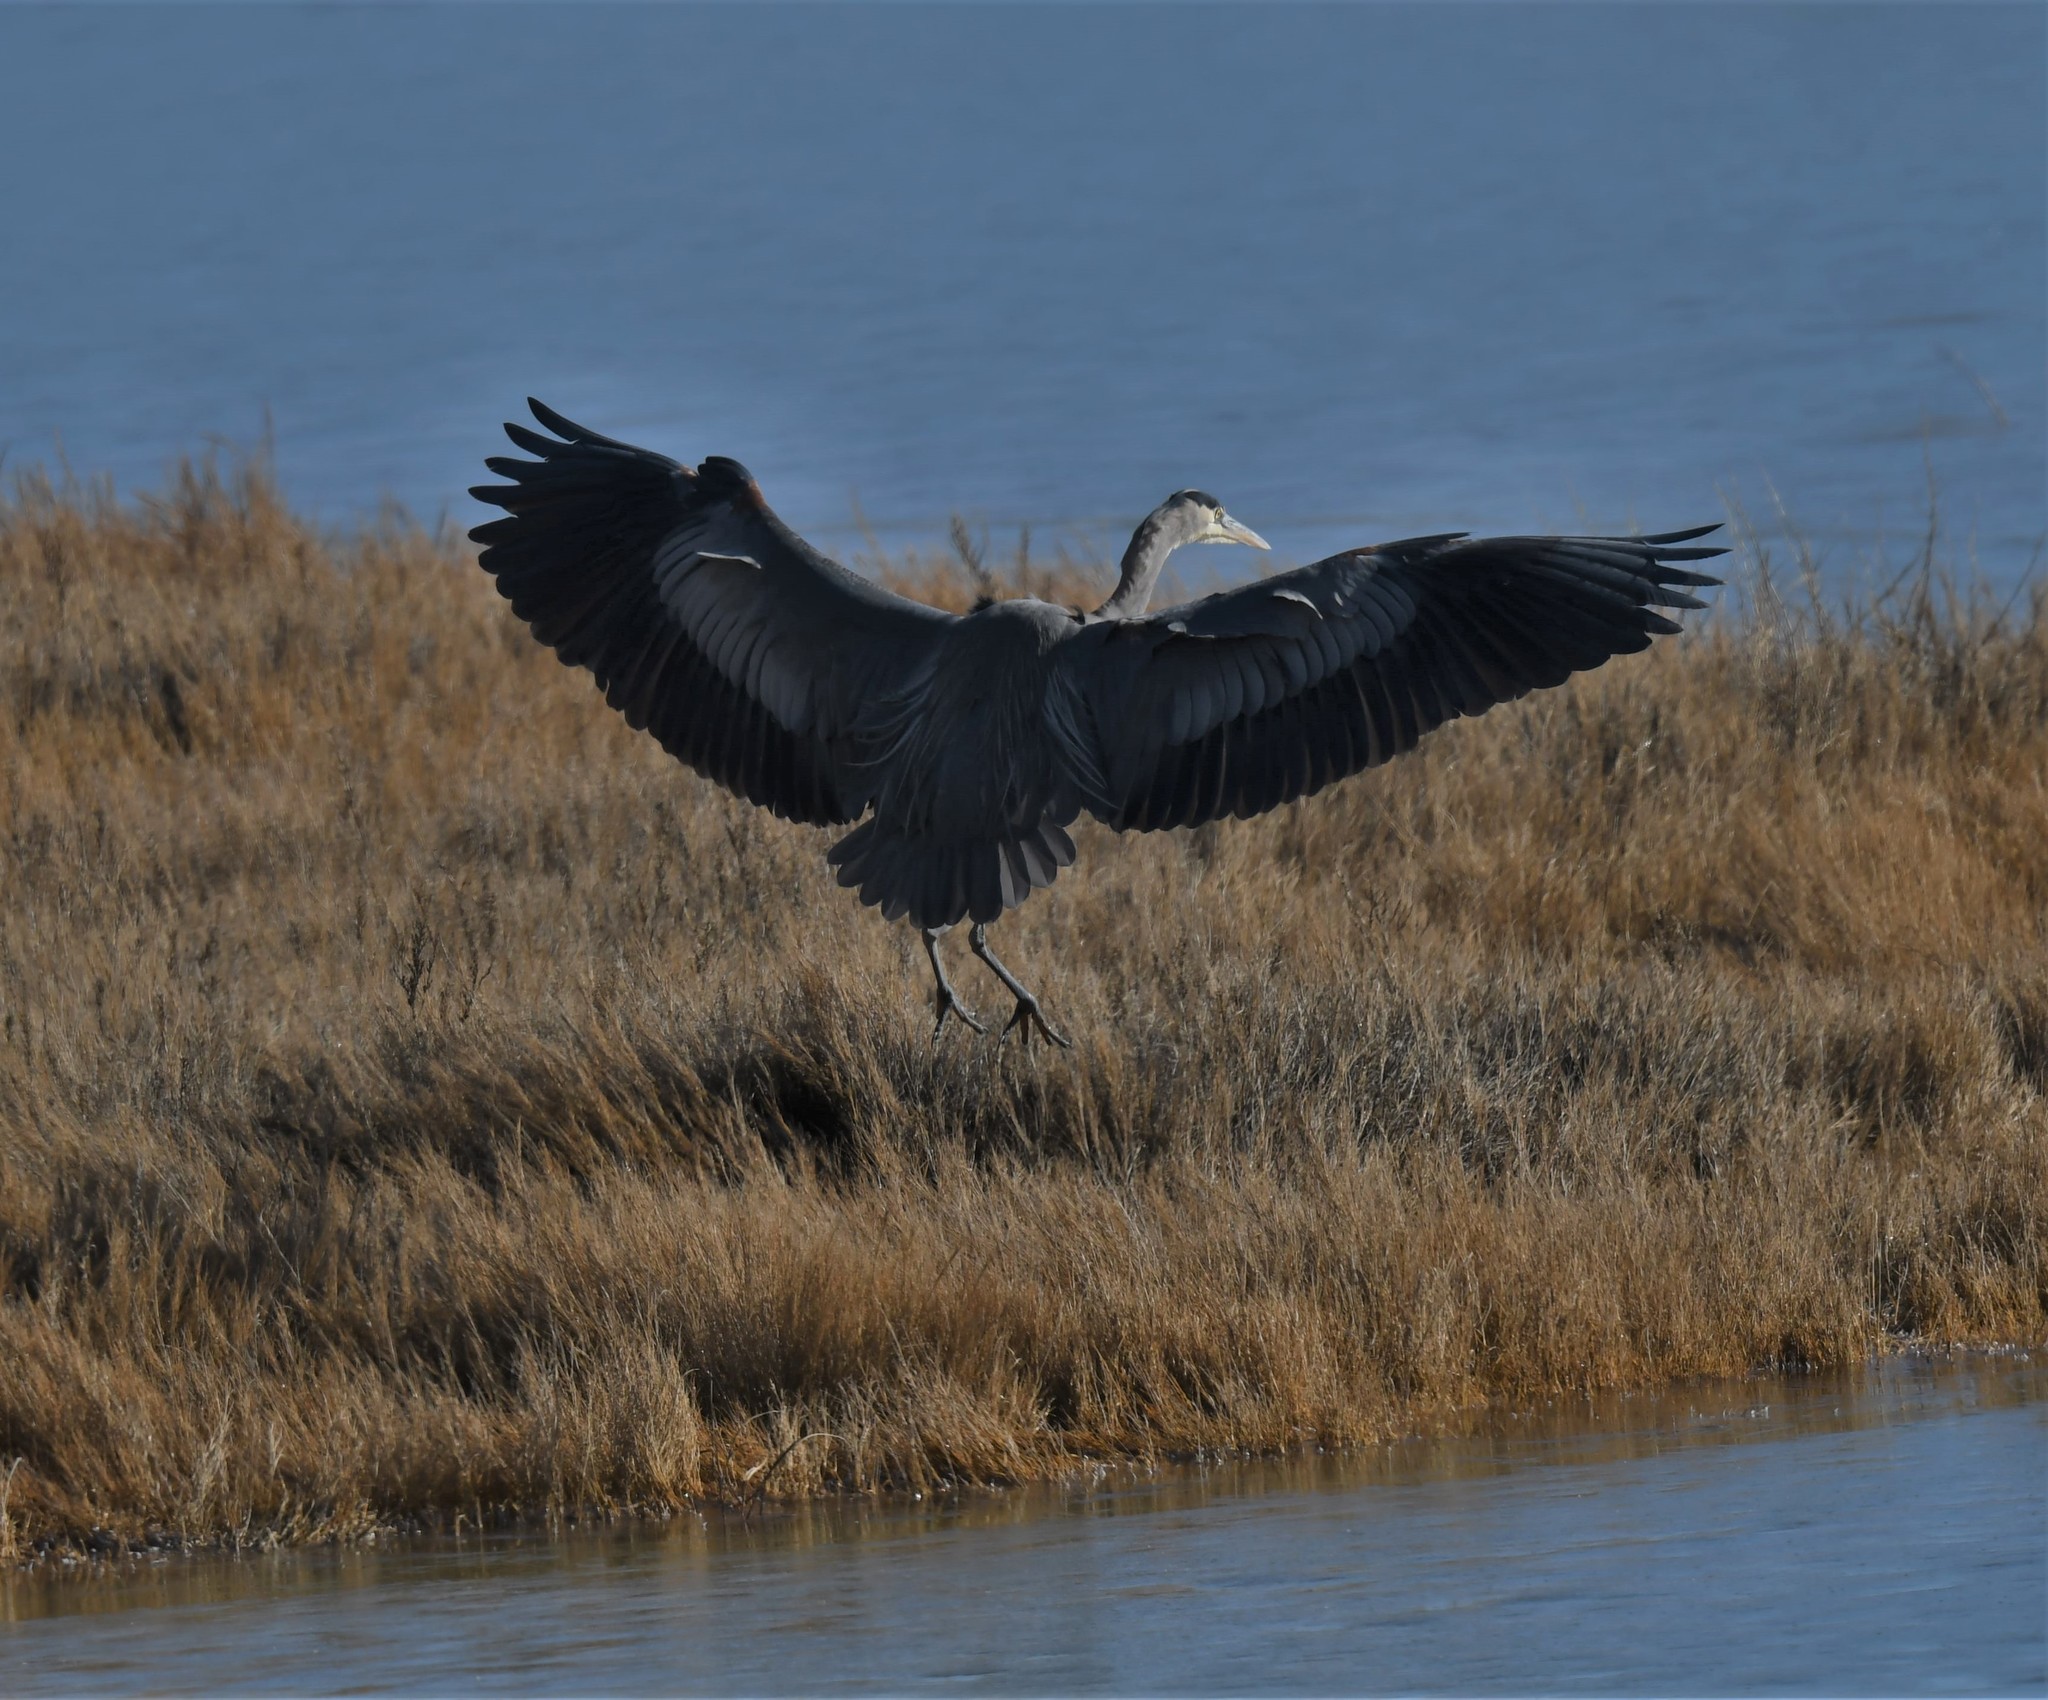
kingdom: Animalia
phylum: Chordata
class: Aves
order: Pelecaniformes
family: Ardeidae
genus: Ardea
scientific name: Ardea herodias
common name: Great blue heron
